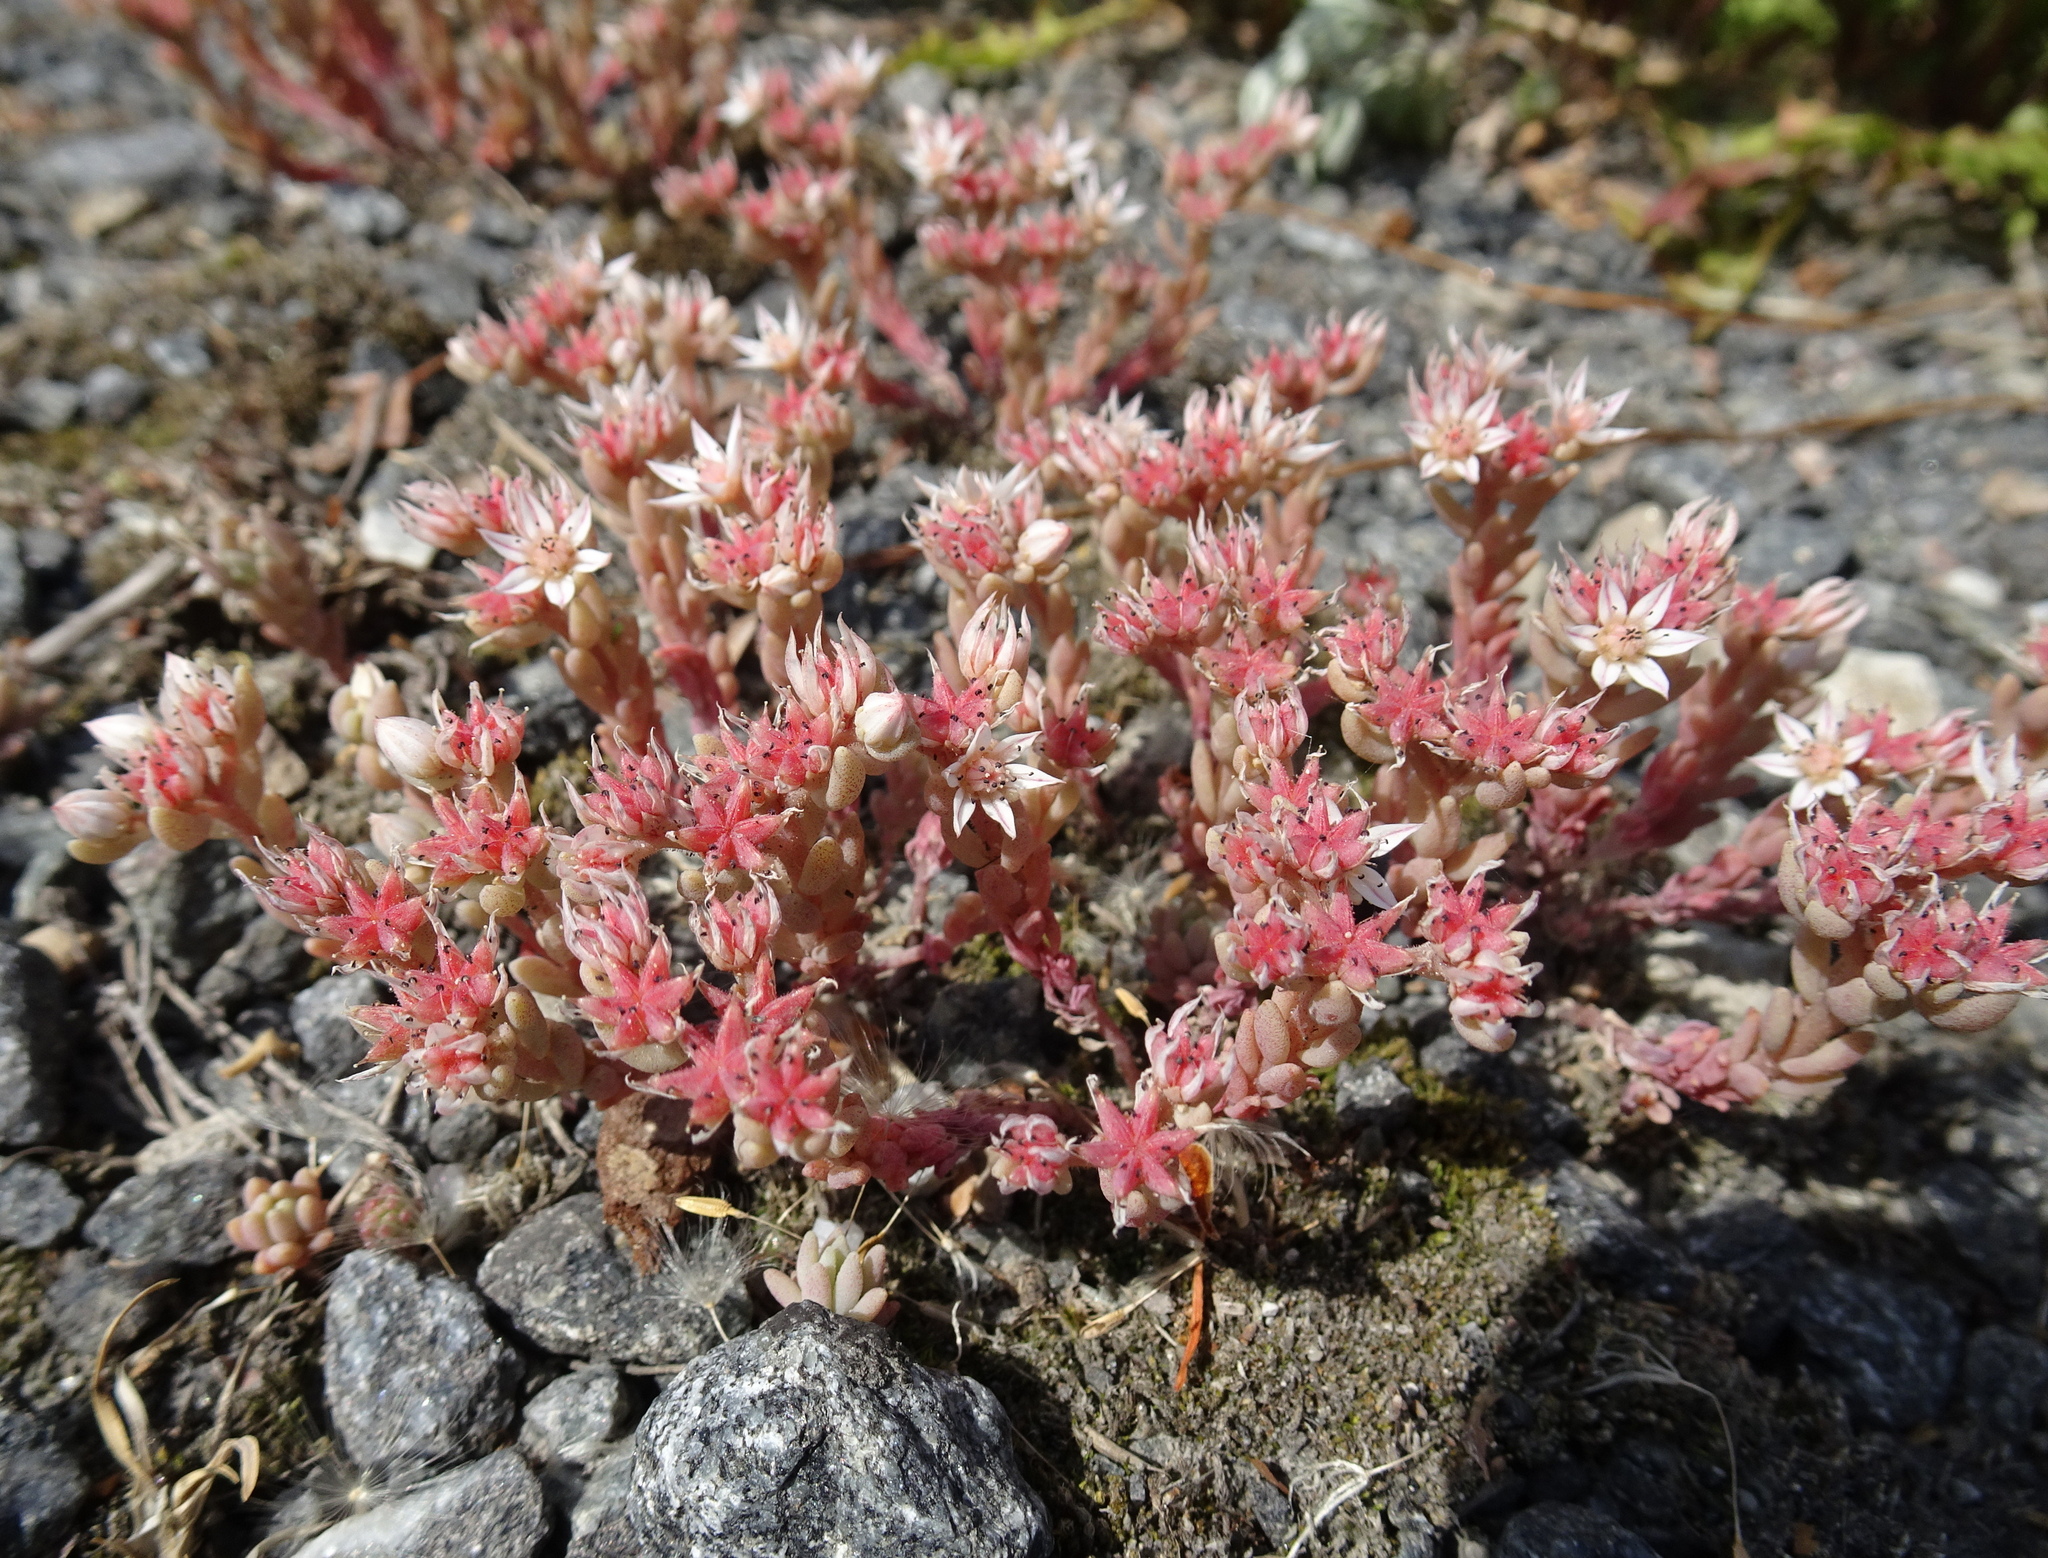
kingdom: Plantae
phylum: Tracheophyta
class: Magnoliopsida
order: Saxifragales
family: Crassulaceae
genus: Sedum
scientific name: Sedum hispanicum
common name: Spanish stonecrop
